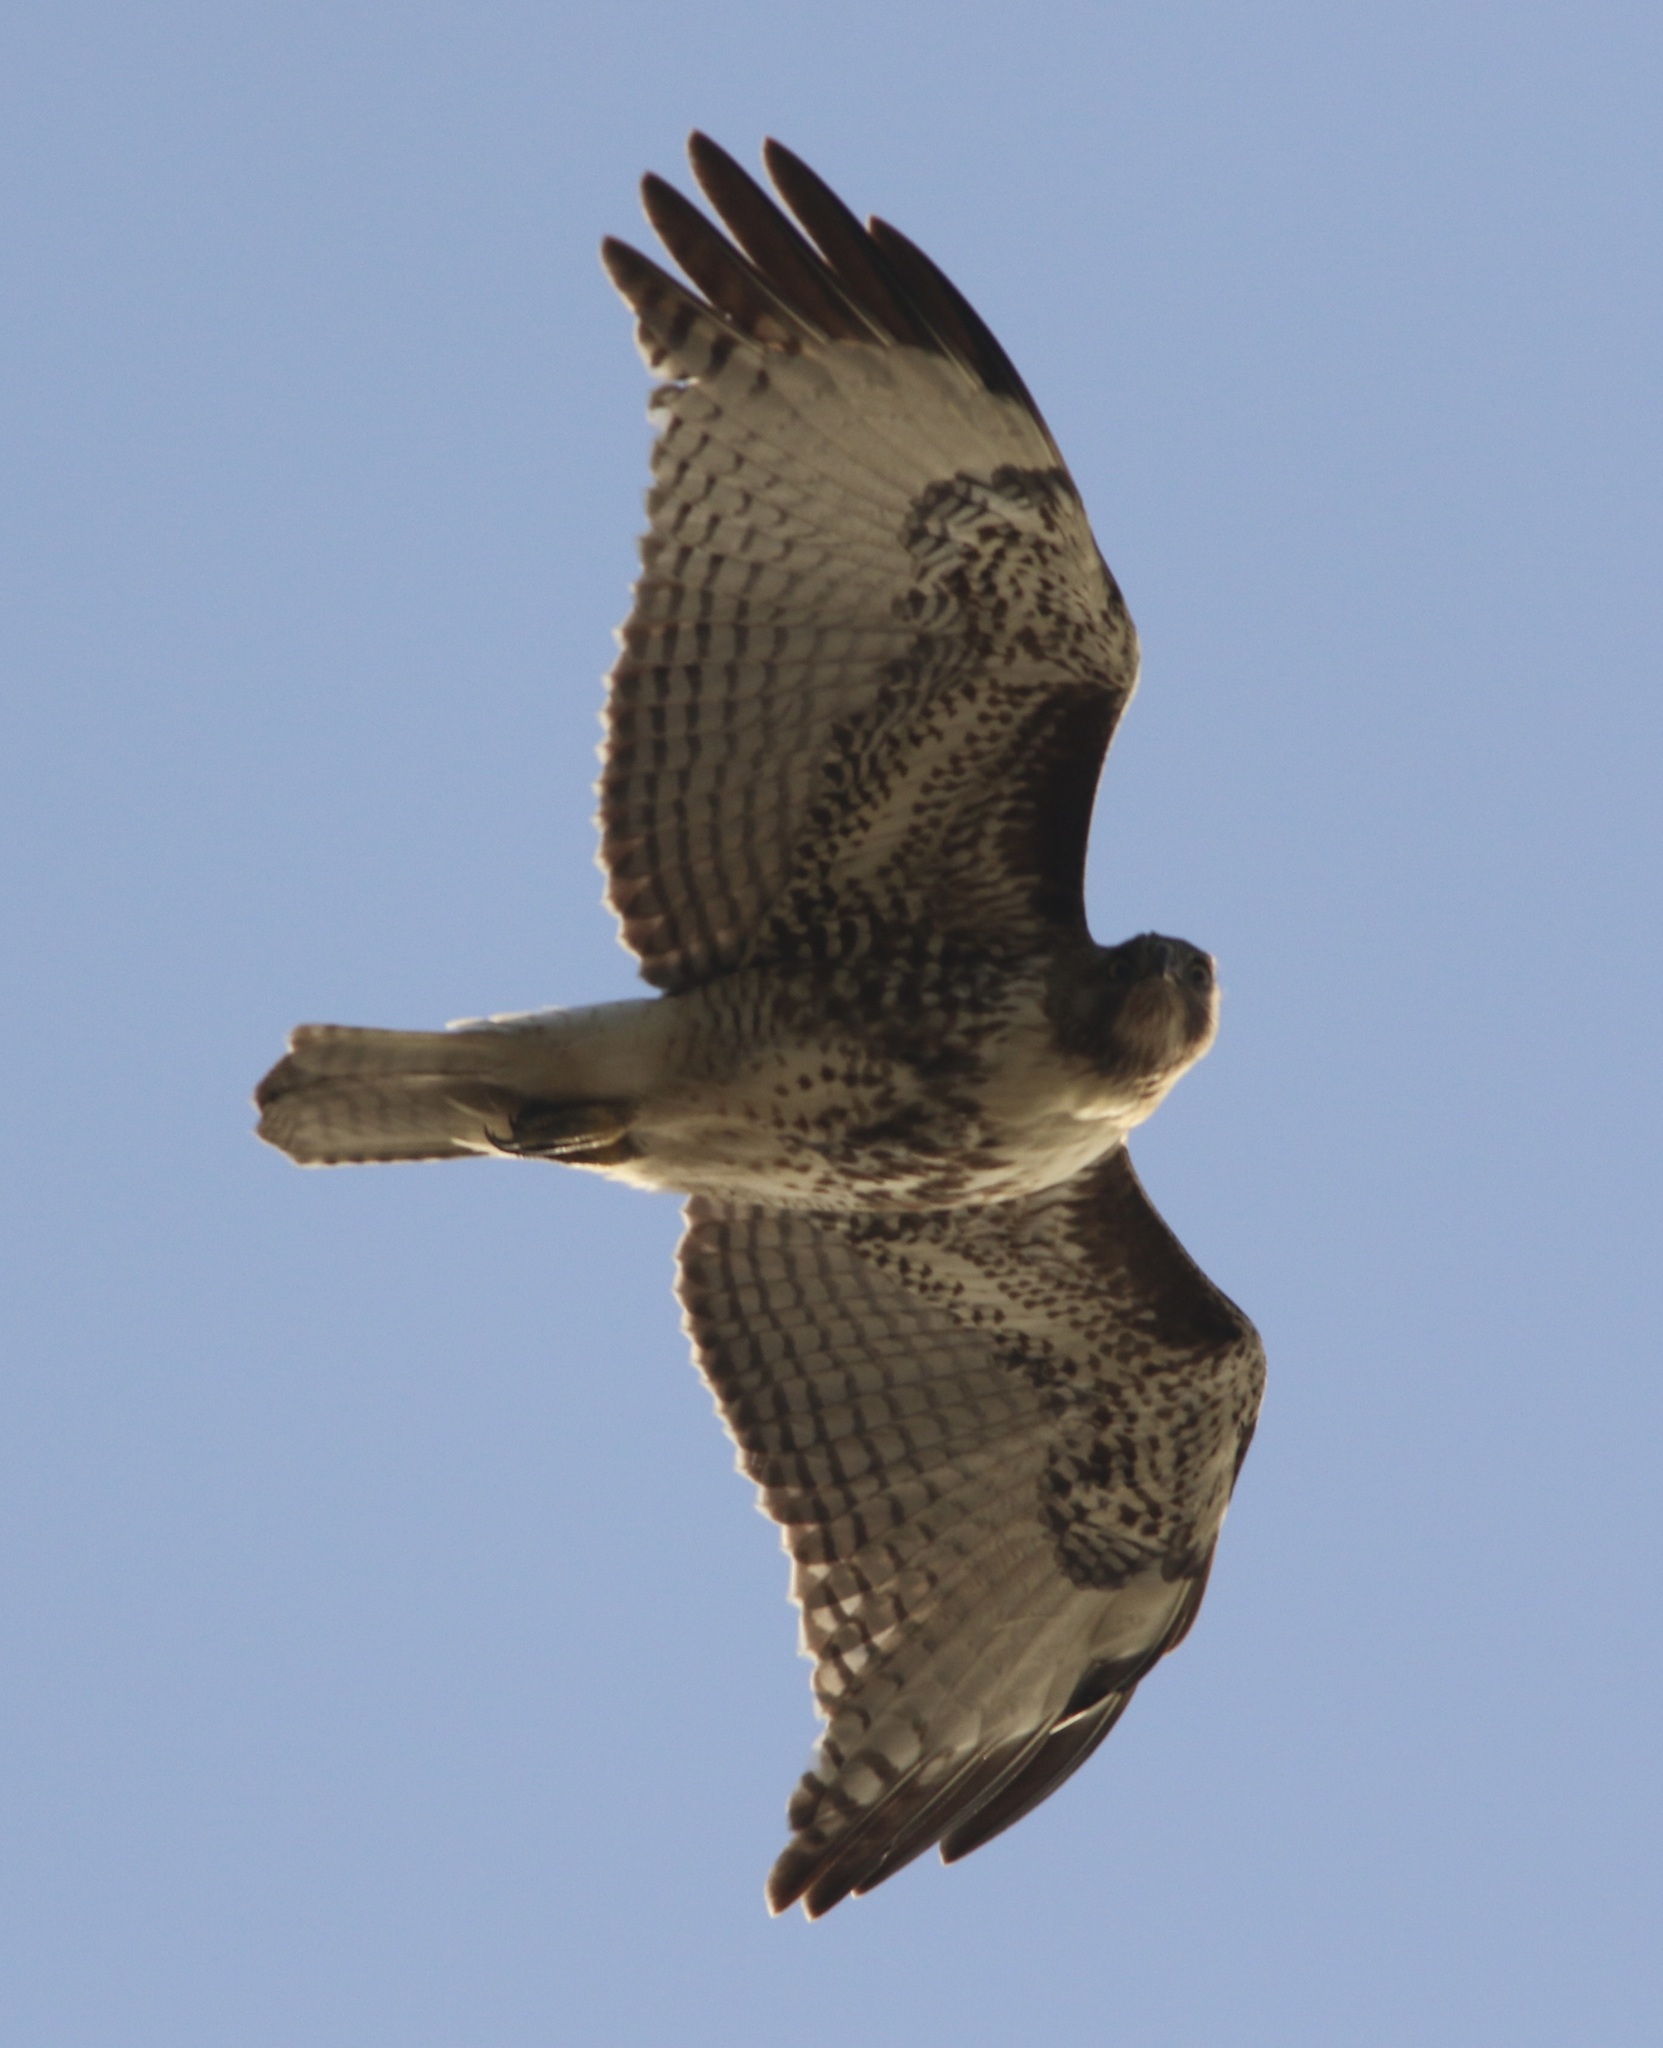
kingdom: Animalia
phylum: Chordata
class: Aves
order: Accipitriformes
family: Accipitridae
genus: Buteo
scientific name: Buteo jamaicensis
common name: Red-tailed hawk
